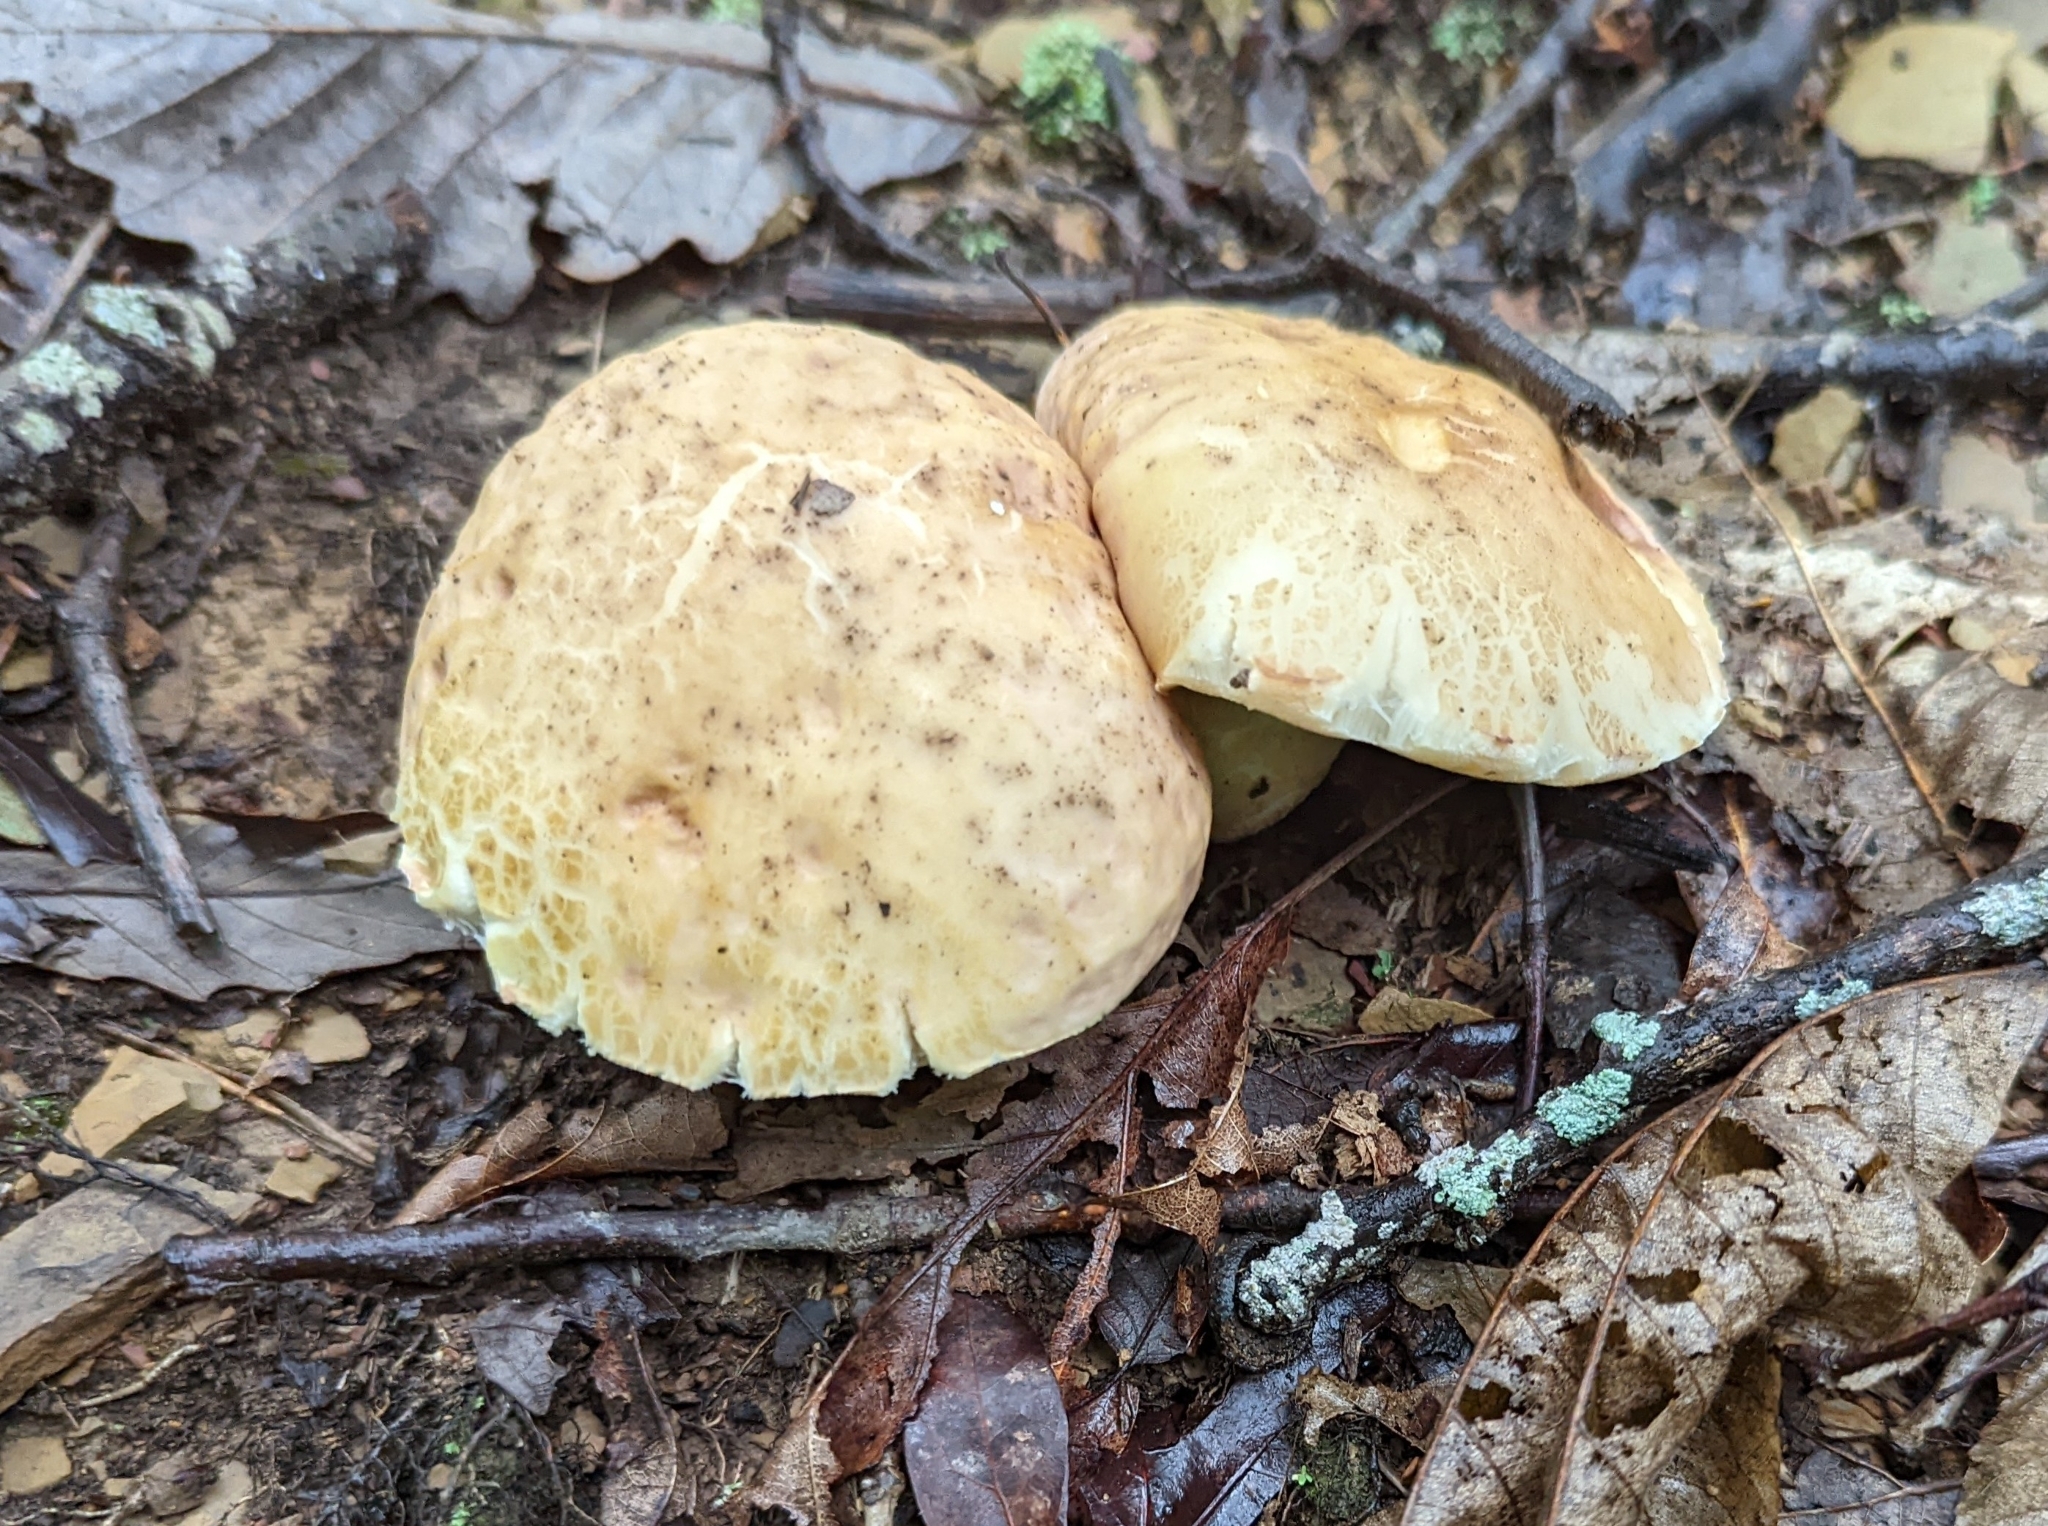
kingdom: Fungi
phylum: Basidiomycota
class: Agaricomycetes
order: Boletales
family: Boletaceae
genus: Xanthoconium
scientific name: Xanthoconium separans
